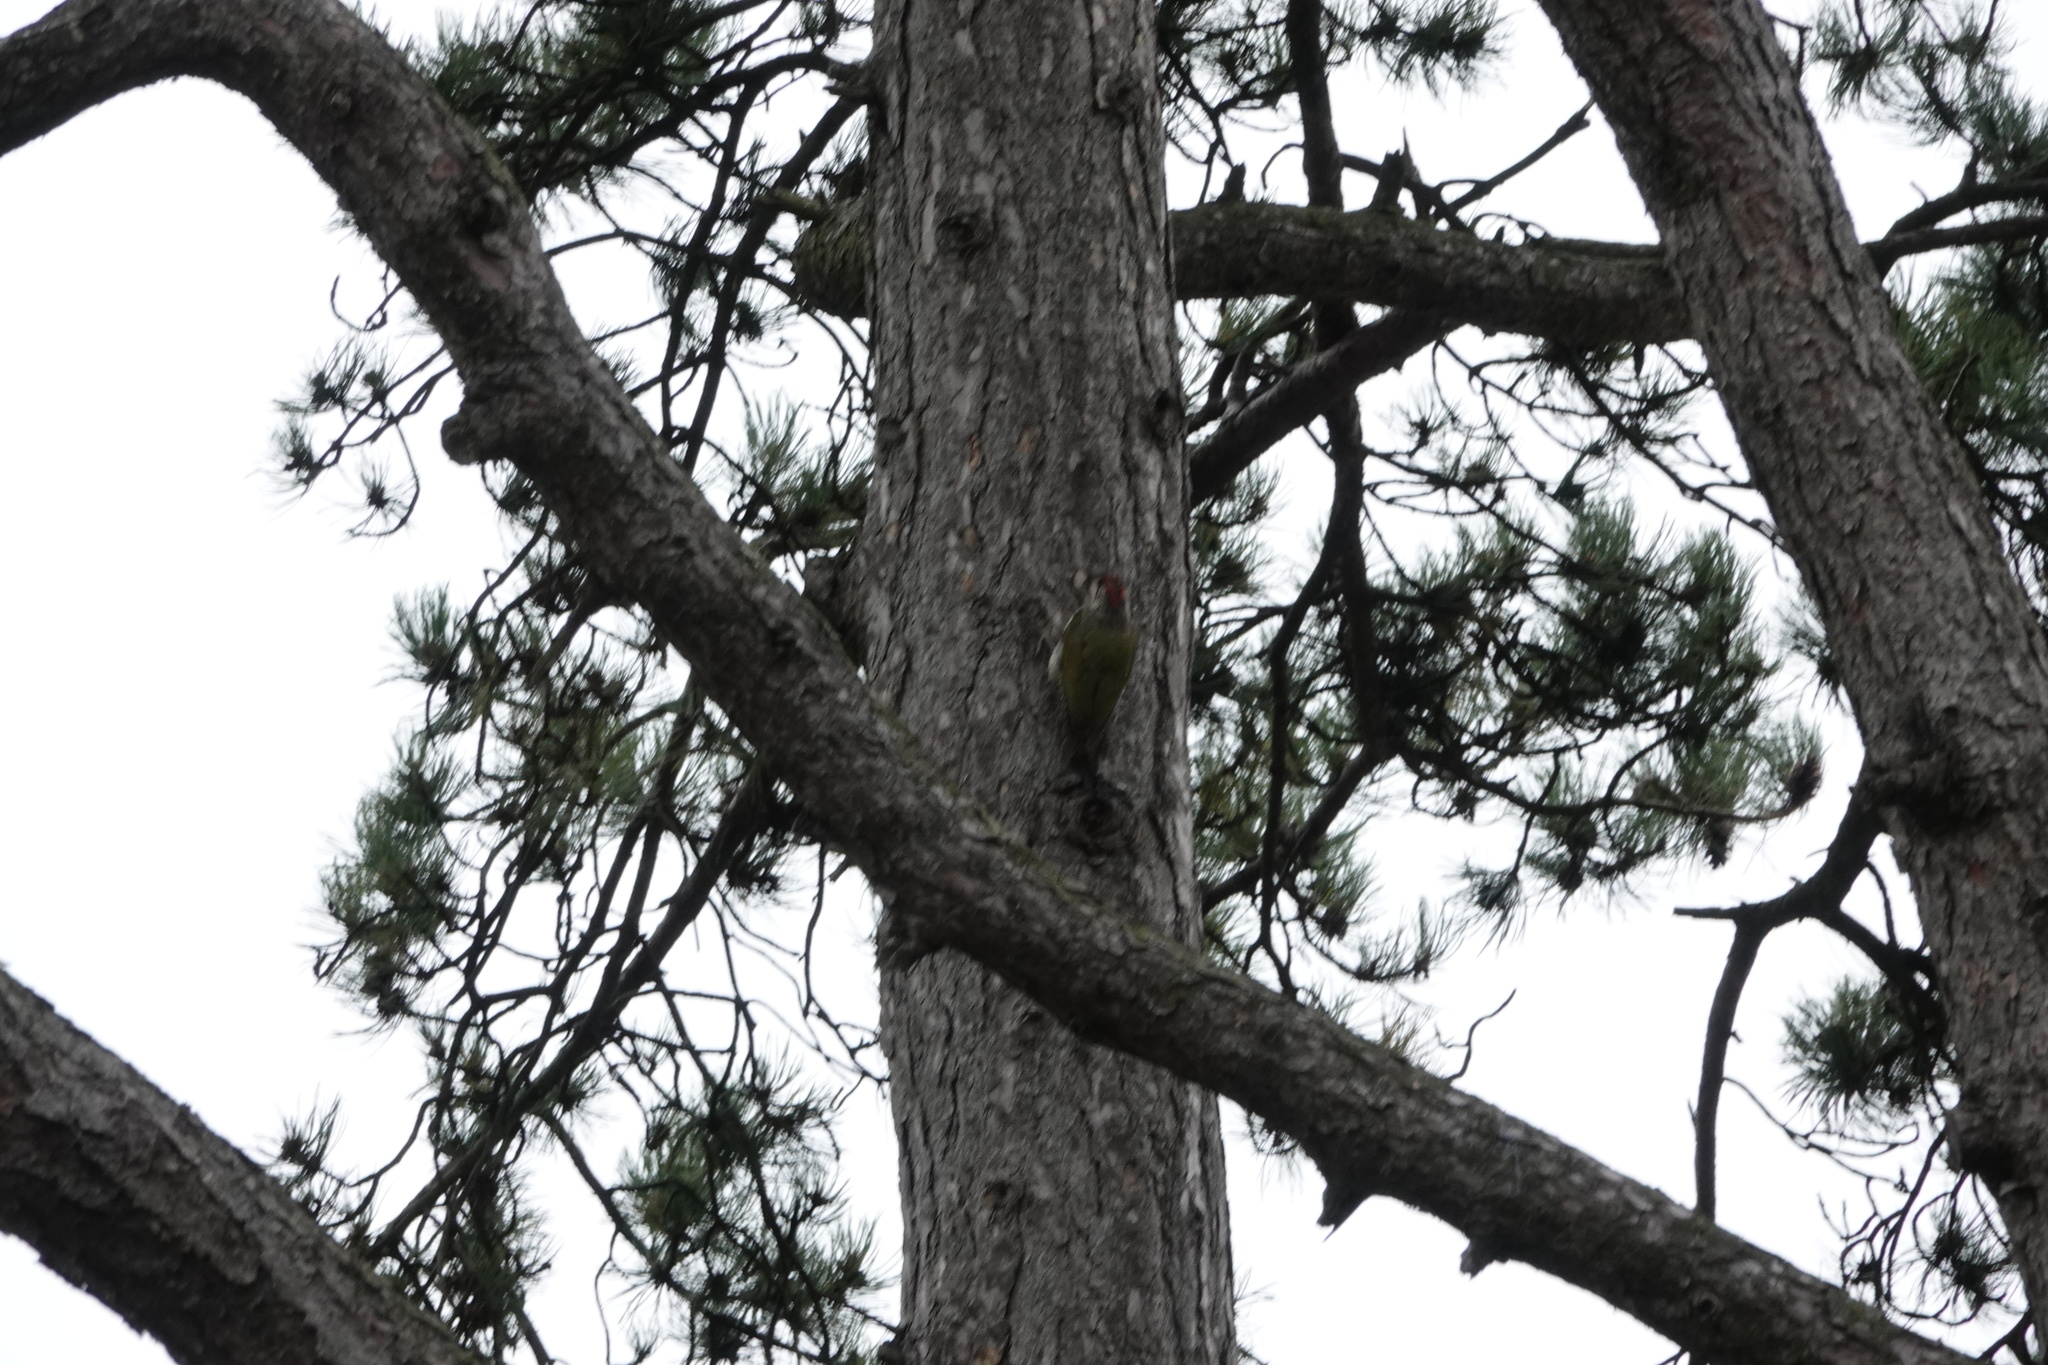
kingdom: Animalia
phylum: Chordata
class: Aves
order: Piciformes
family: Picidae
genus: Picus
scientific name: Picus viridis
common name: European green woodpecker
